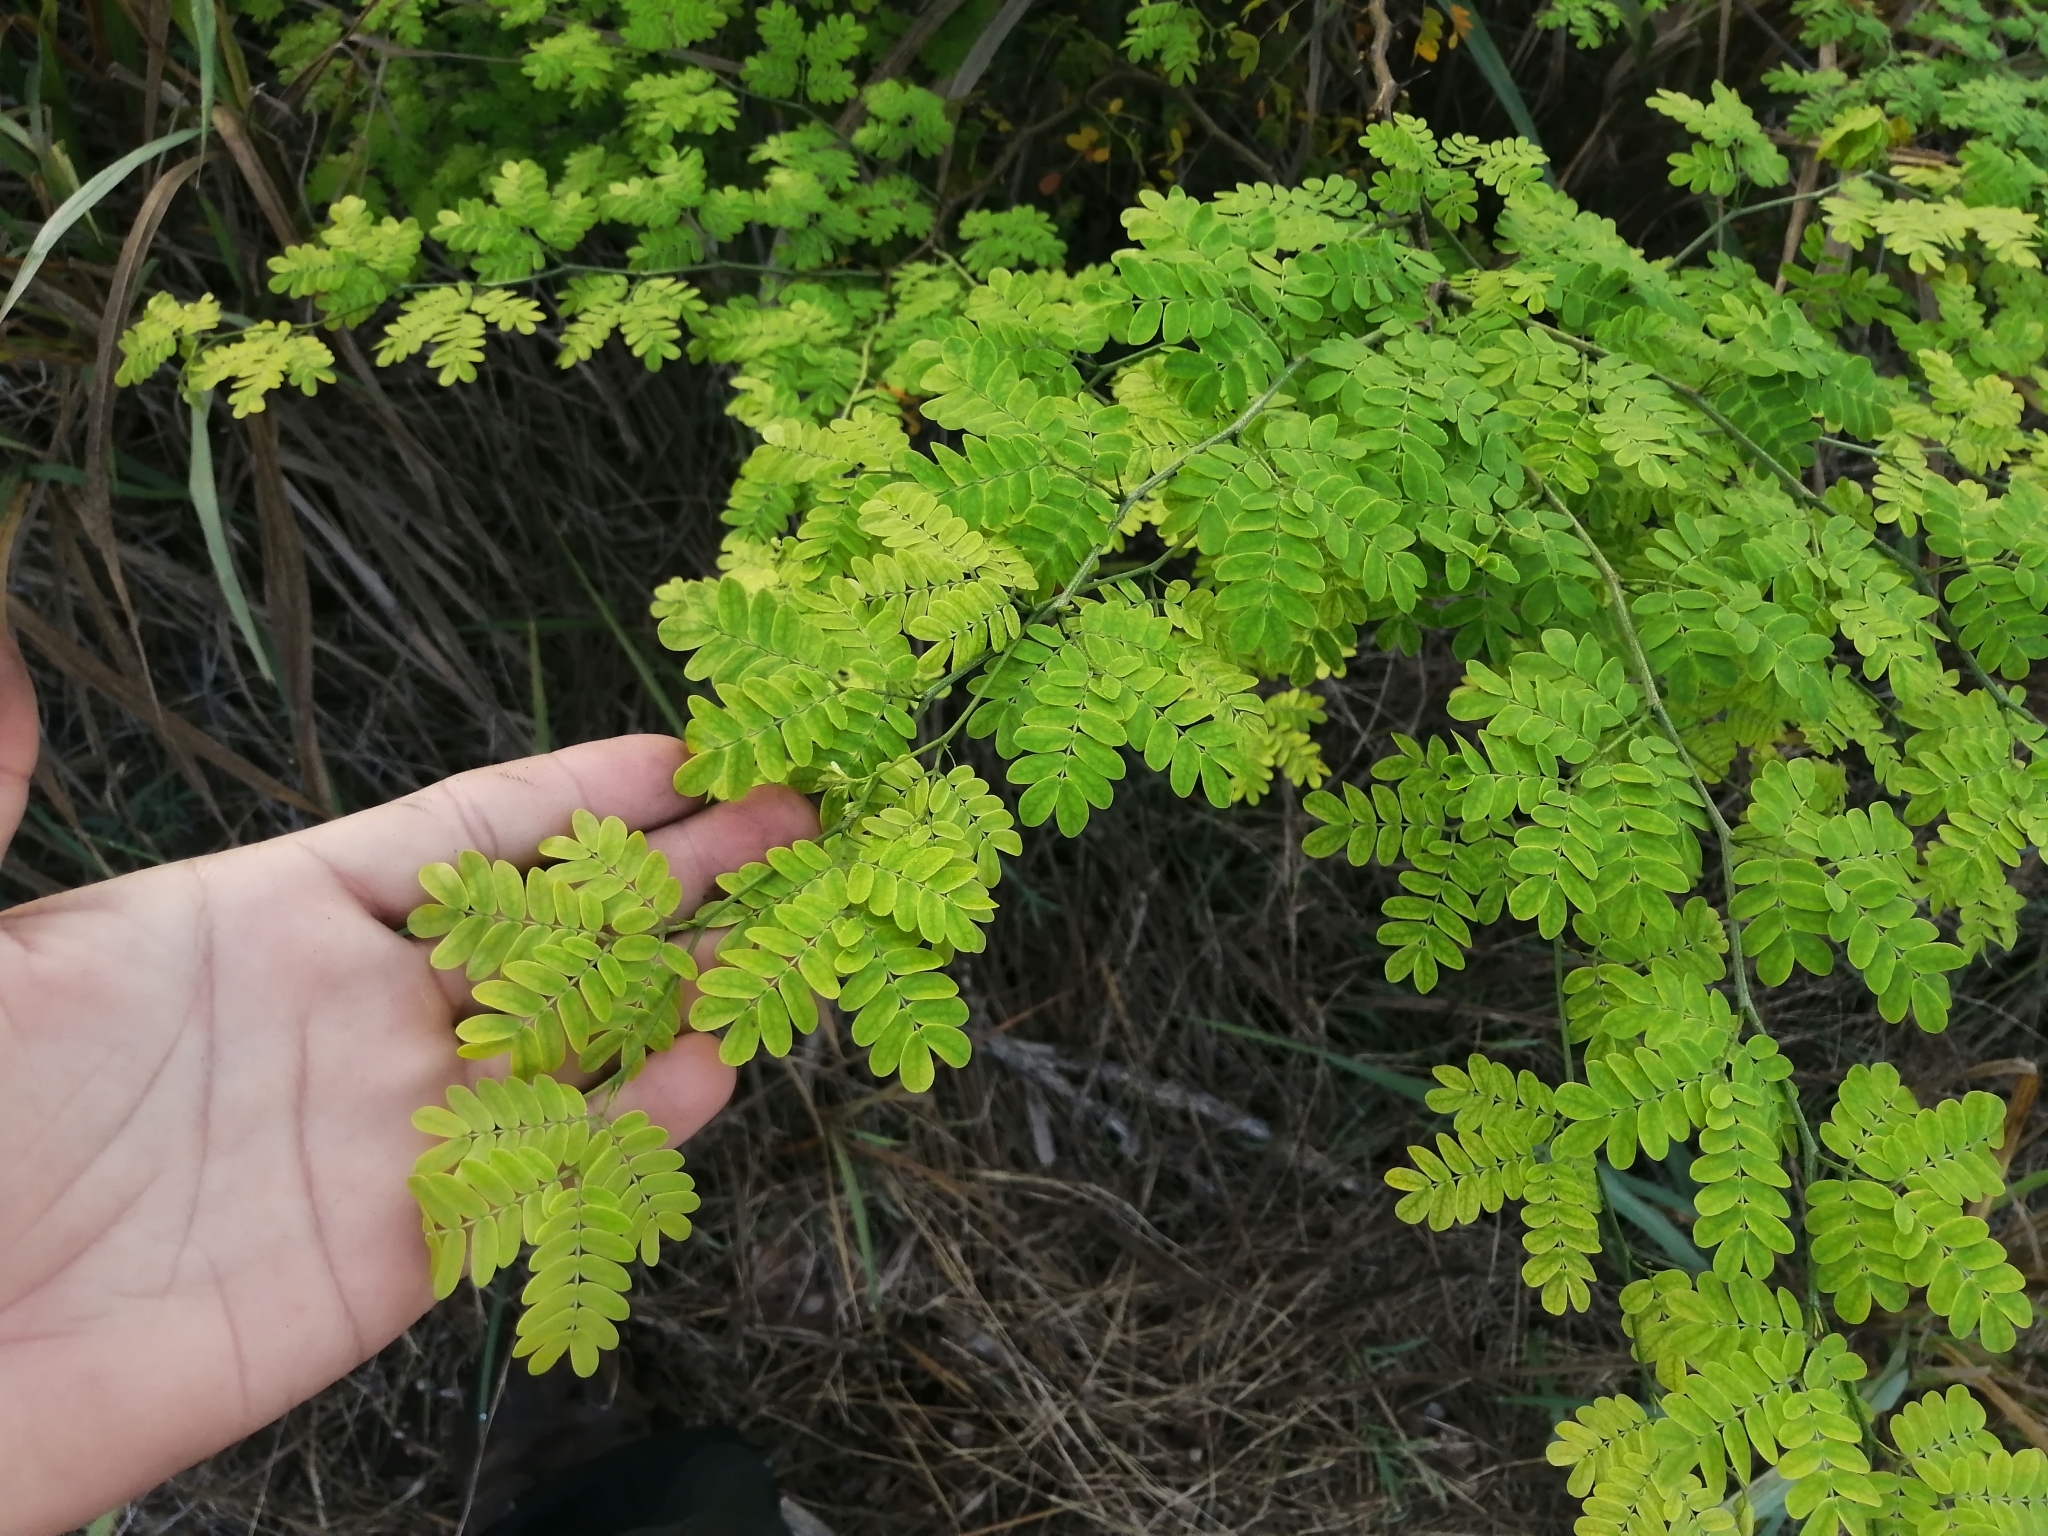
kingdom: Plantae
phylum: Tracheophyta
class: Magnoliopsida
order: Fabales
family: Fabaceae
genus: Chloroleucon
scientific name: Chloroleucon mangense
